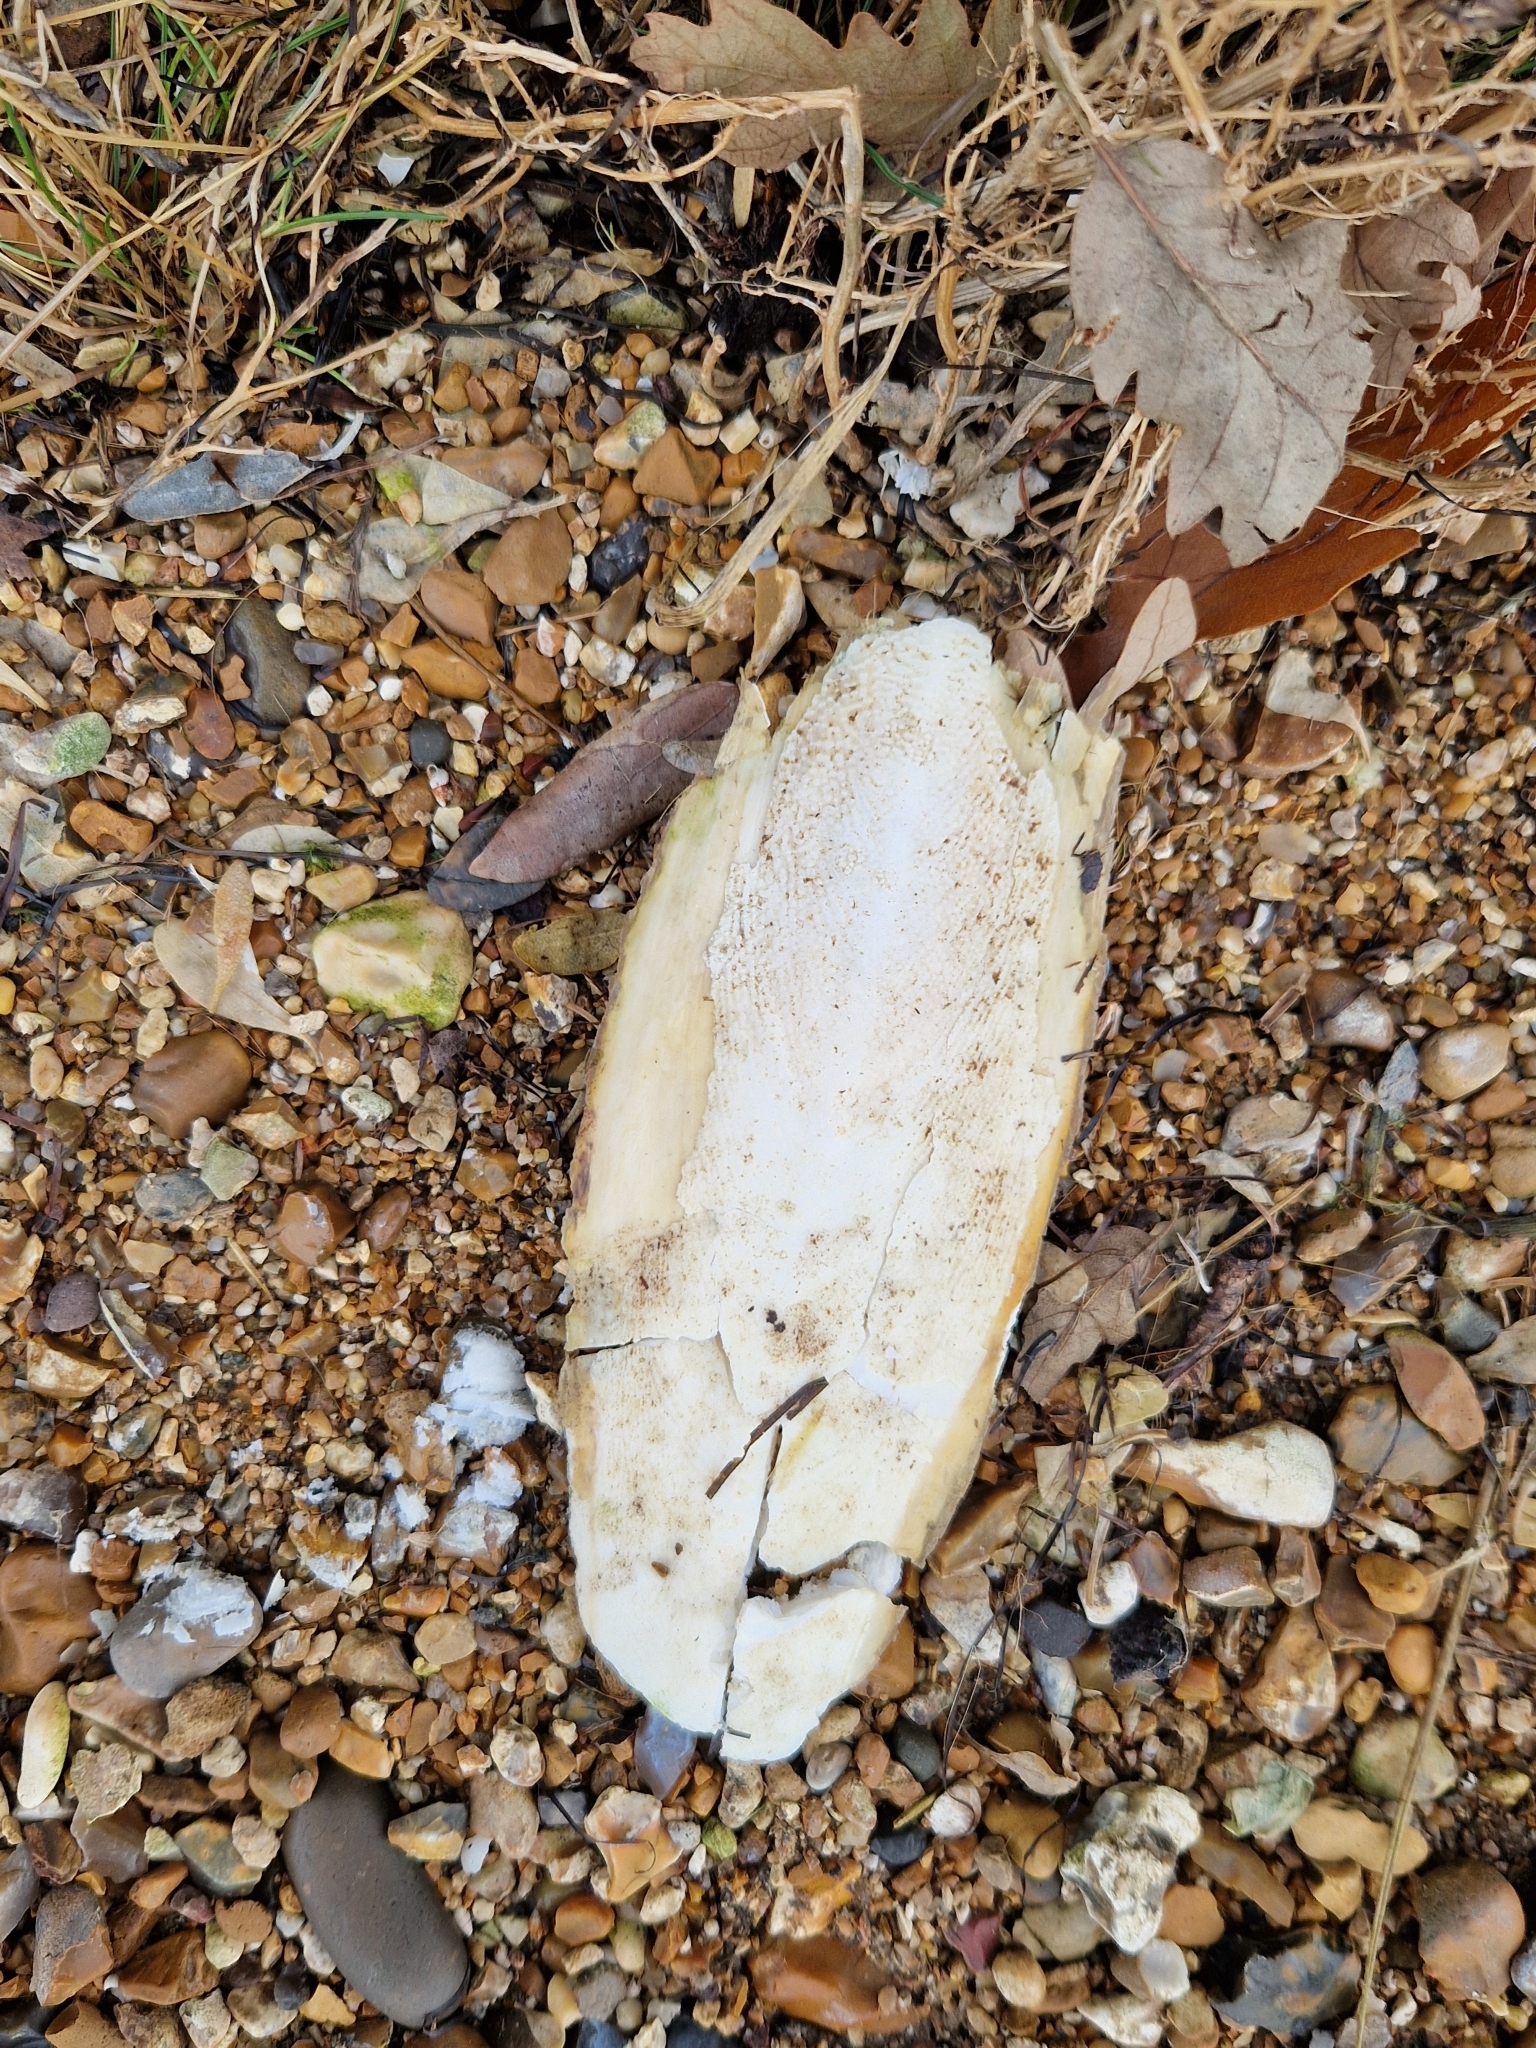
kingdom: Animalia
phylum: Mollusca
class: Cephalopoda
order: Sepiida
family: Sepiidae
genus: Sepia
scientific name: Sepia officinalis
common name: Common cuttlefish
